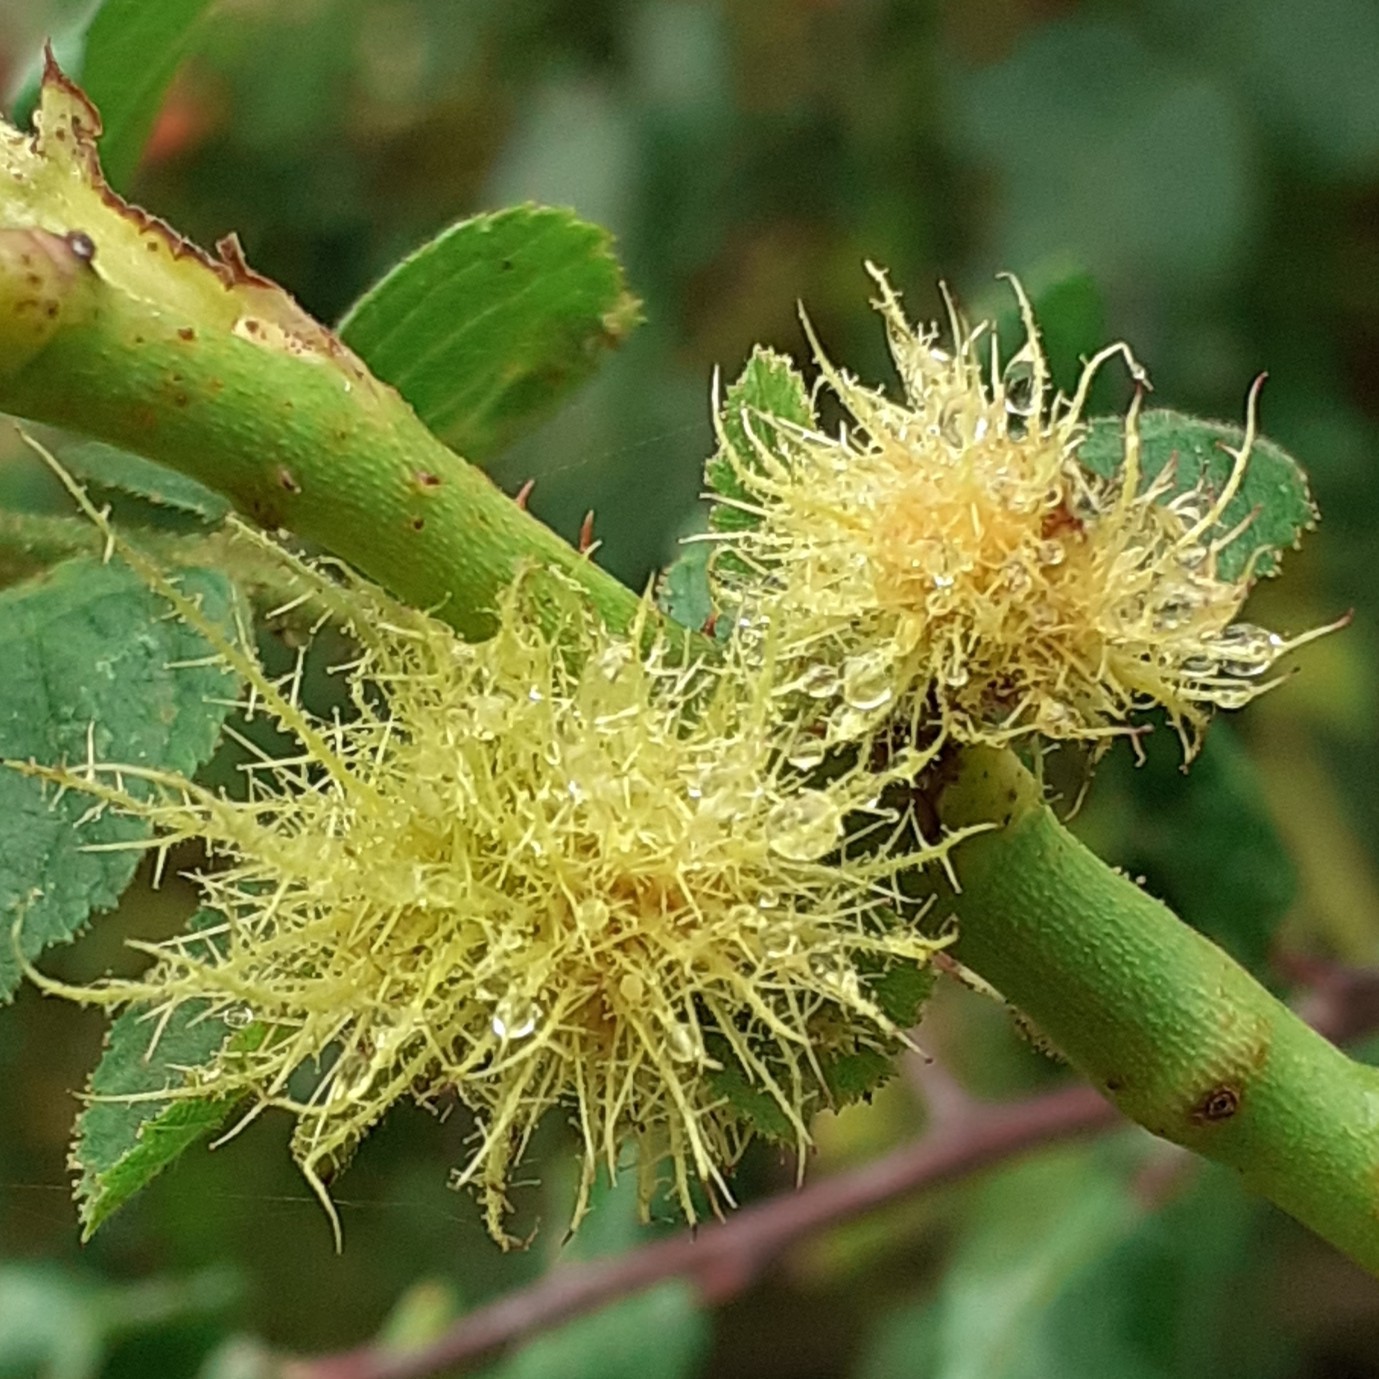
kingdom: Animalia
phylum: Arthropoda
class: Insecta
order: Hymenoptera
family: Cynipidae
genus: Diplolepis
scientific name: Diplolepis rosae
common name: Bedeguar gall
